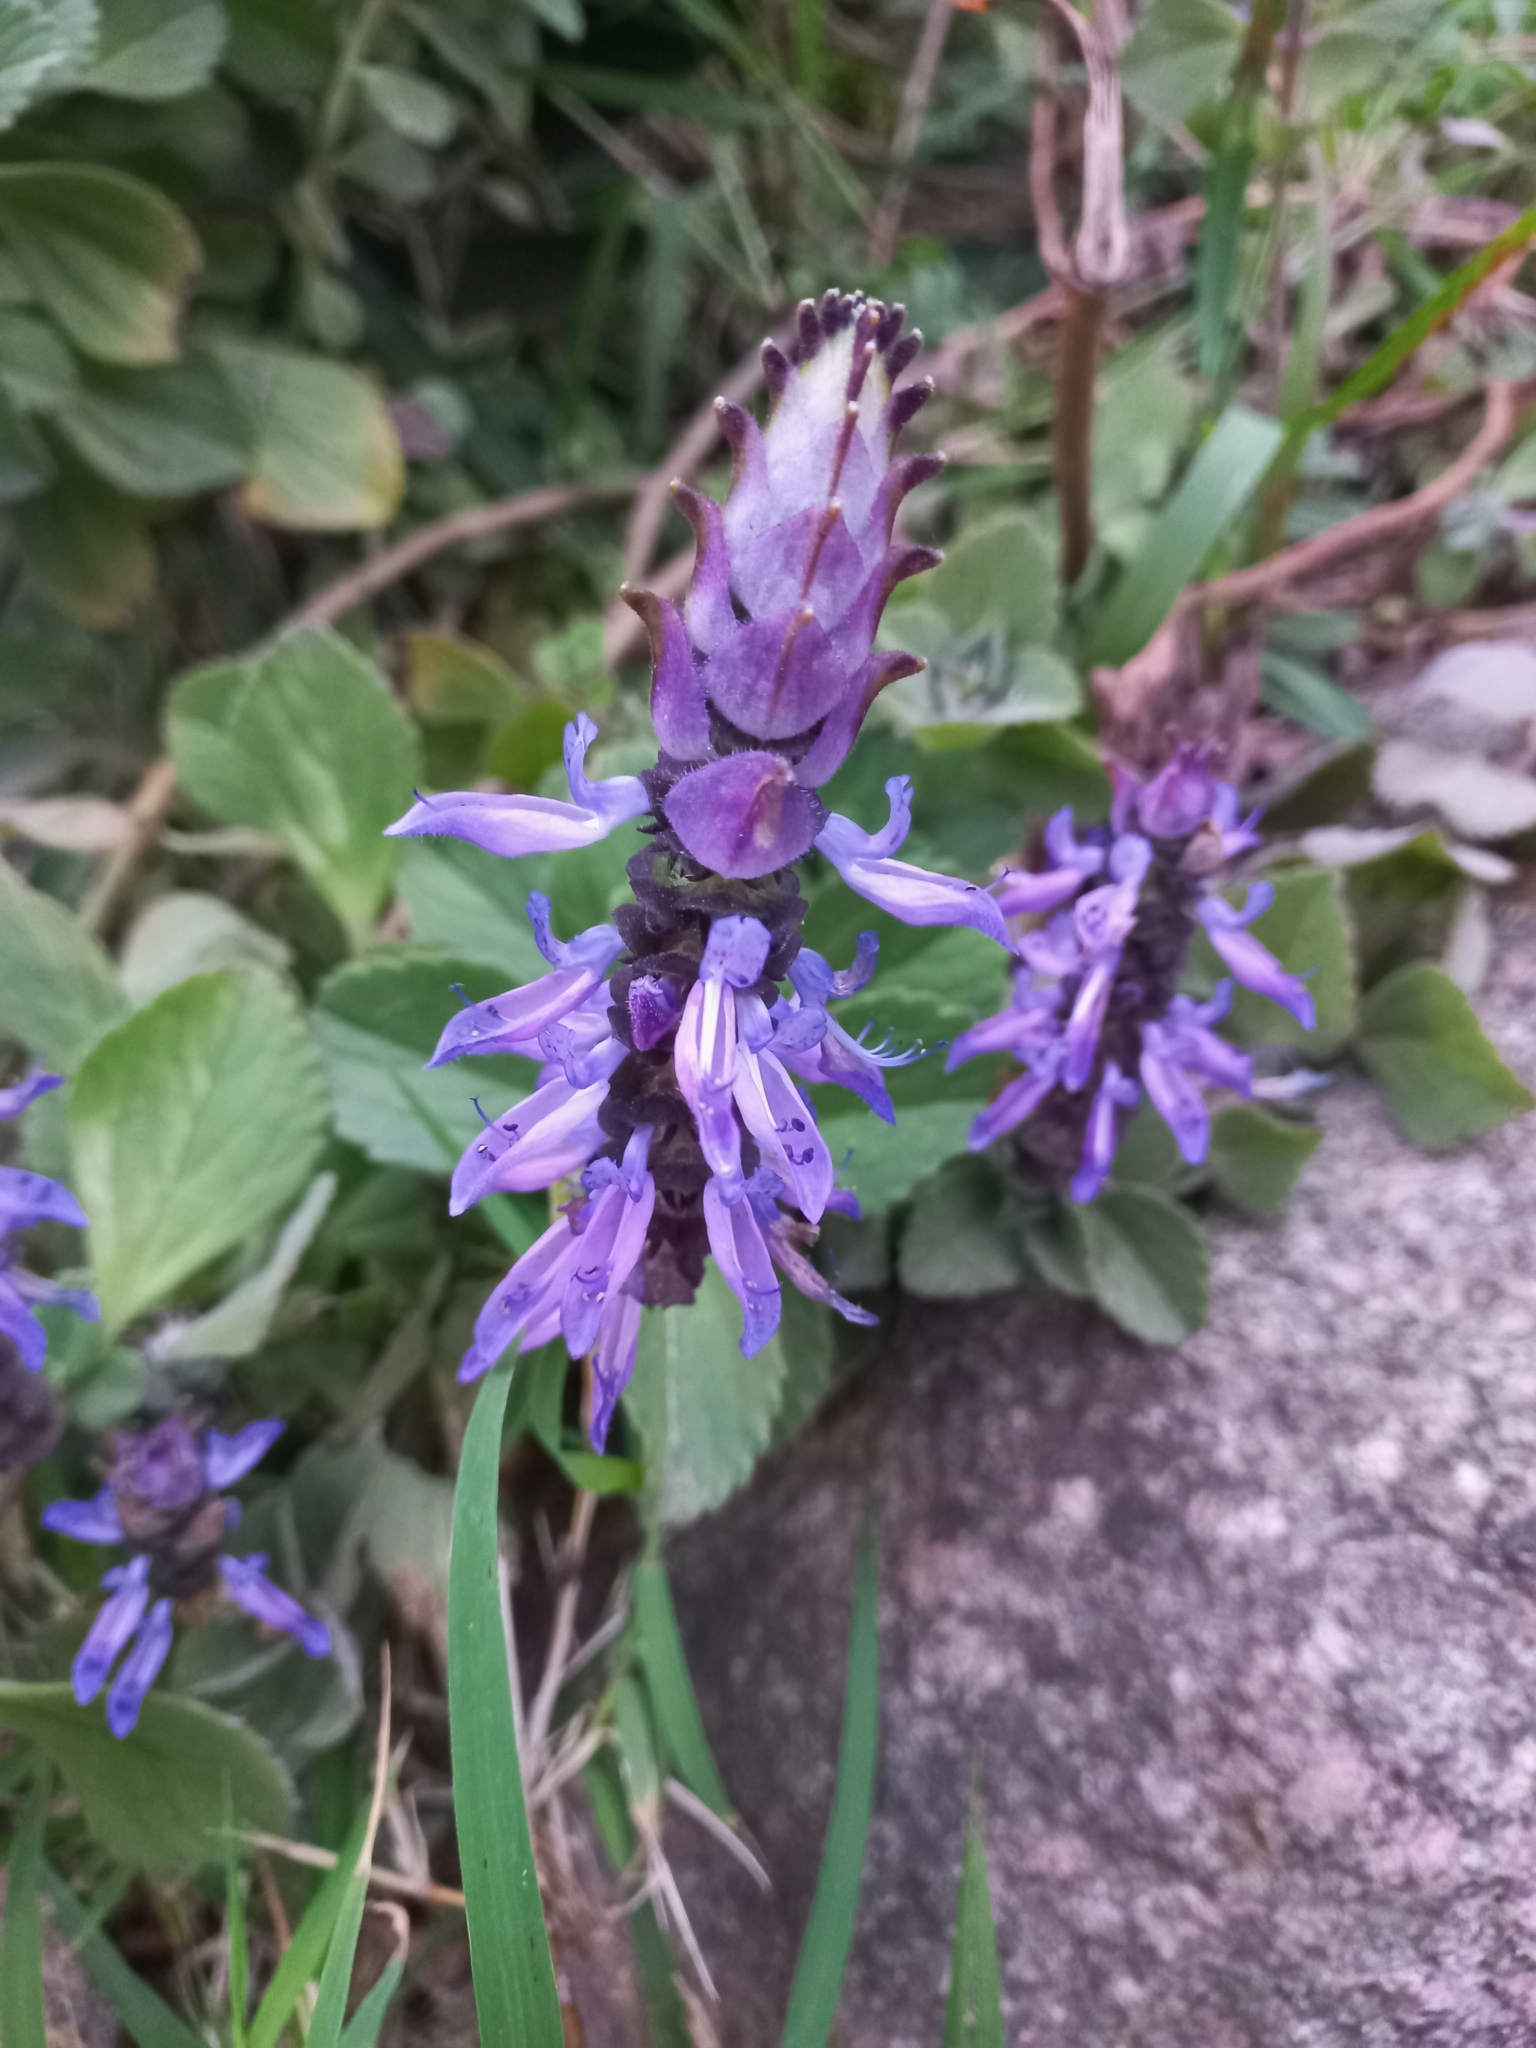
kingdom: Plantae
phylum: Tracheophyta
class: Magnoliopsida
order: Lamiales
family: Lamiaceae
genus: Coleus
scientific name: Coleus neochilus
